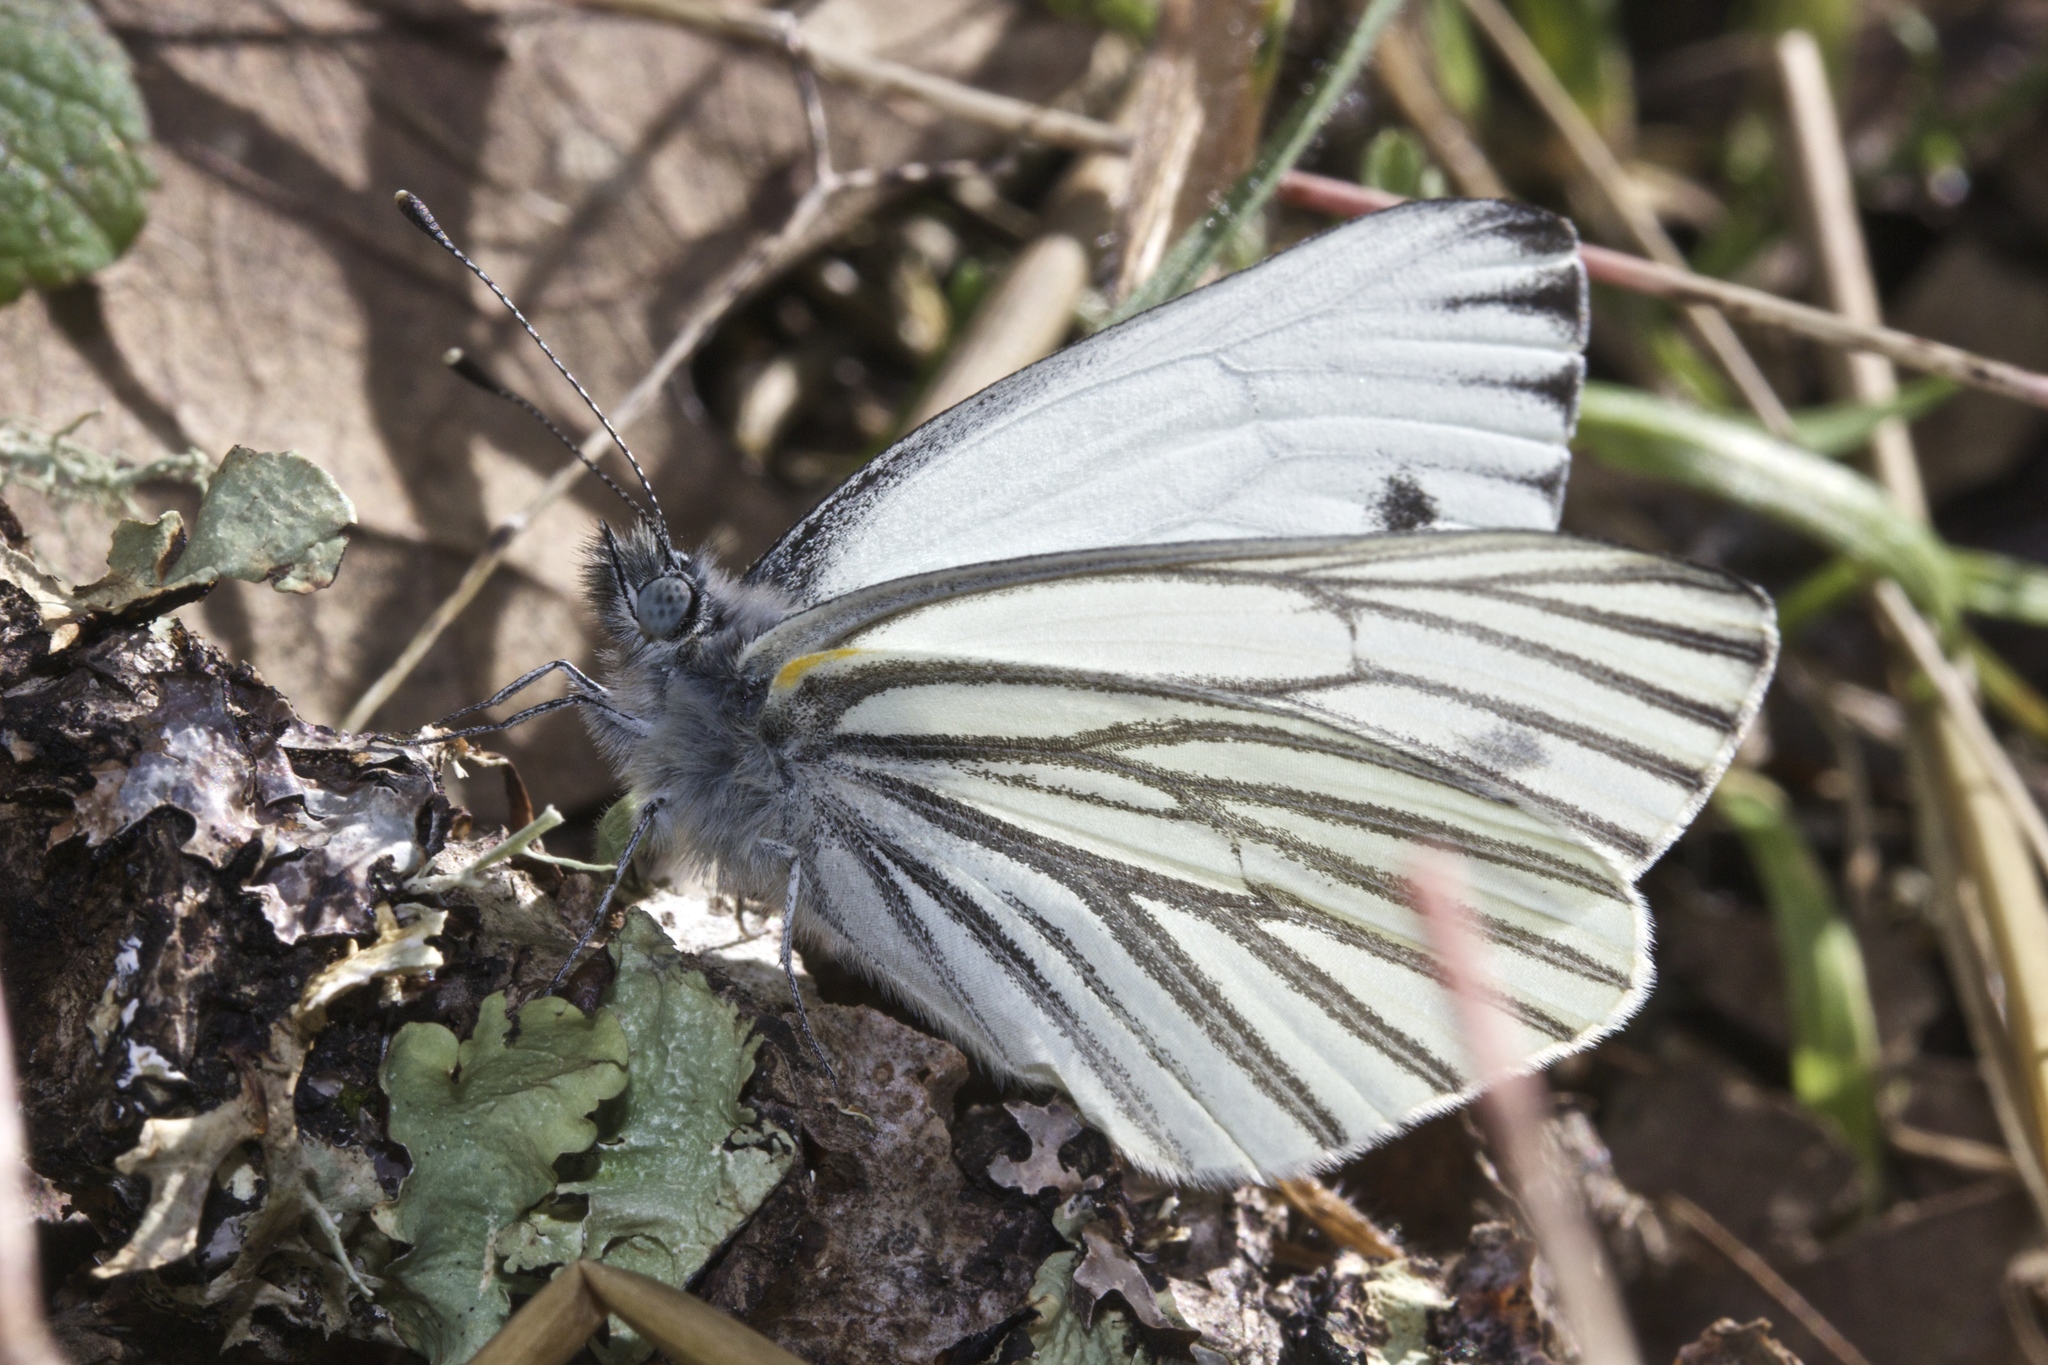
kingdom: Animalia
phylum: Arthropoda
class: Insecta
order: Lepidoptera
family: Pieridae
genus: Pieris
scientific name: Pieris marginalis
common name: Margined white
